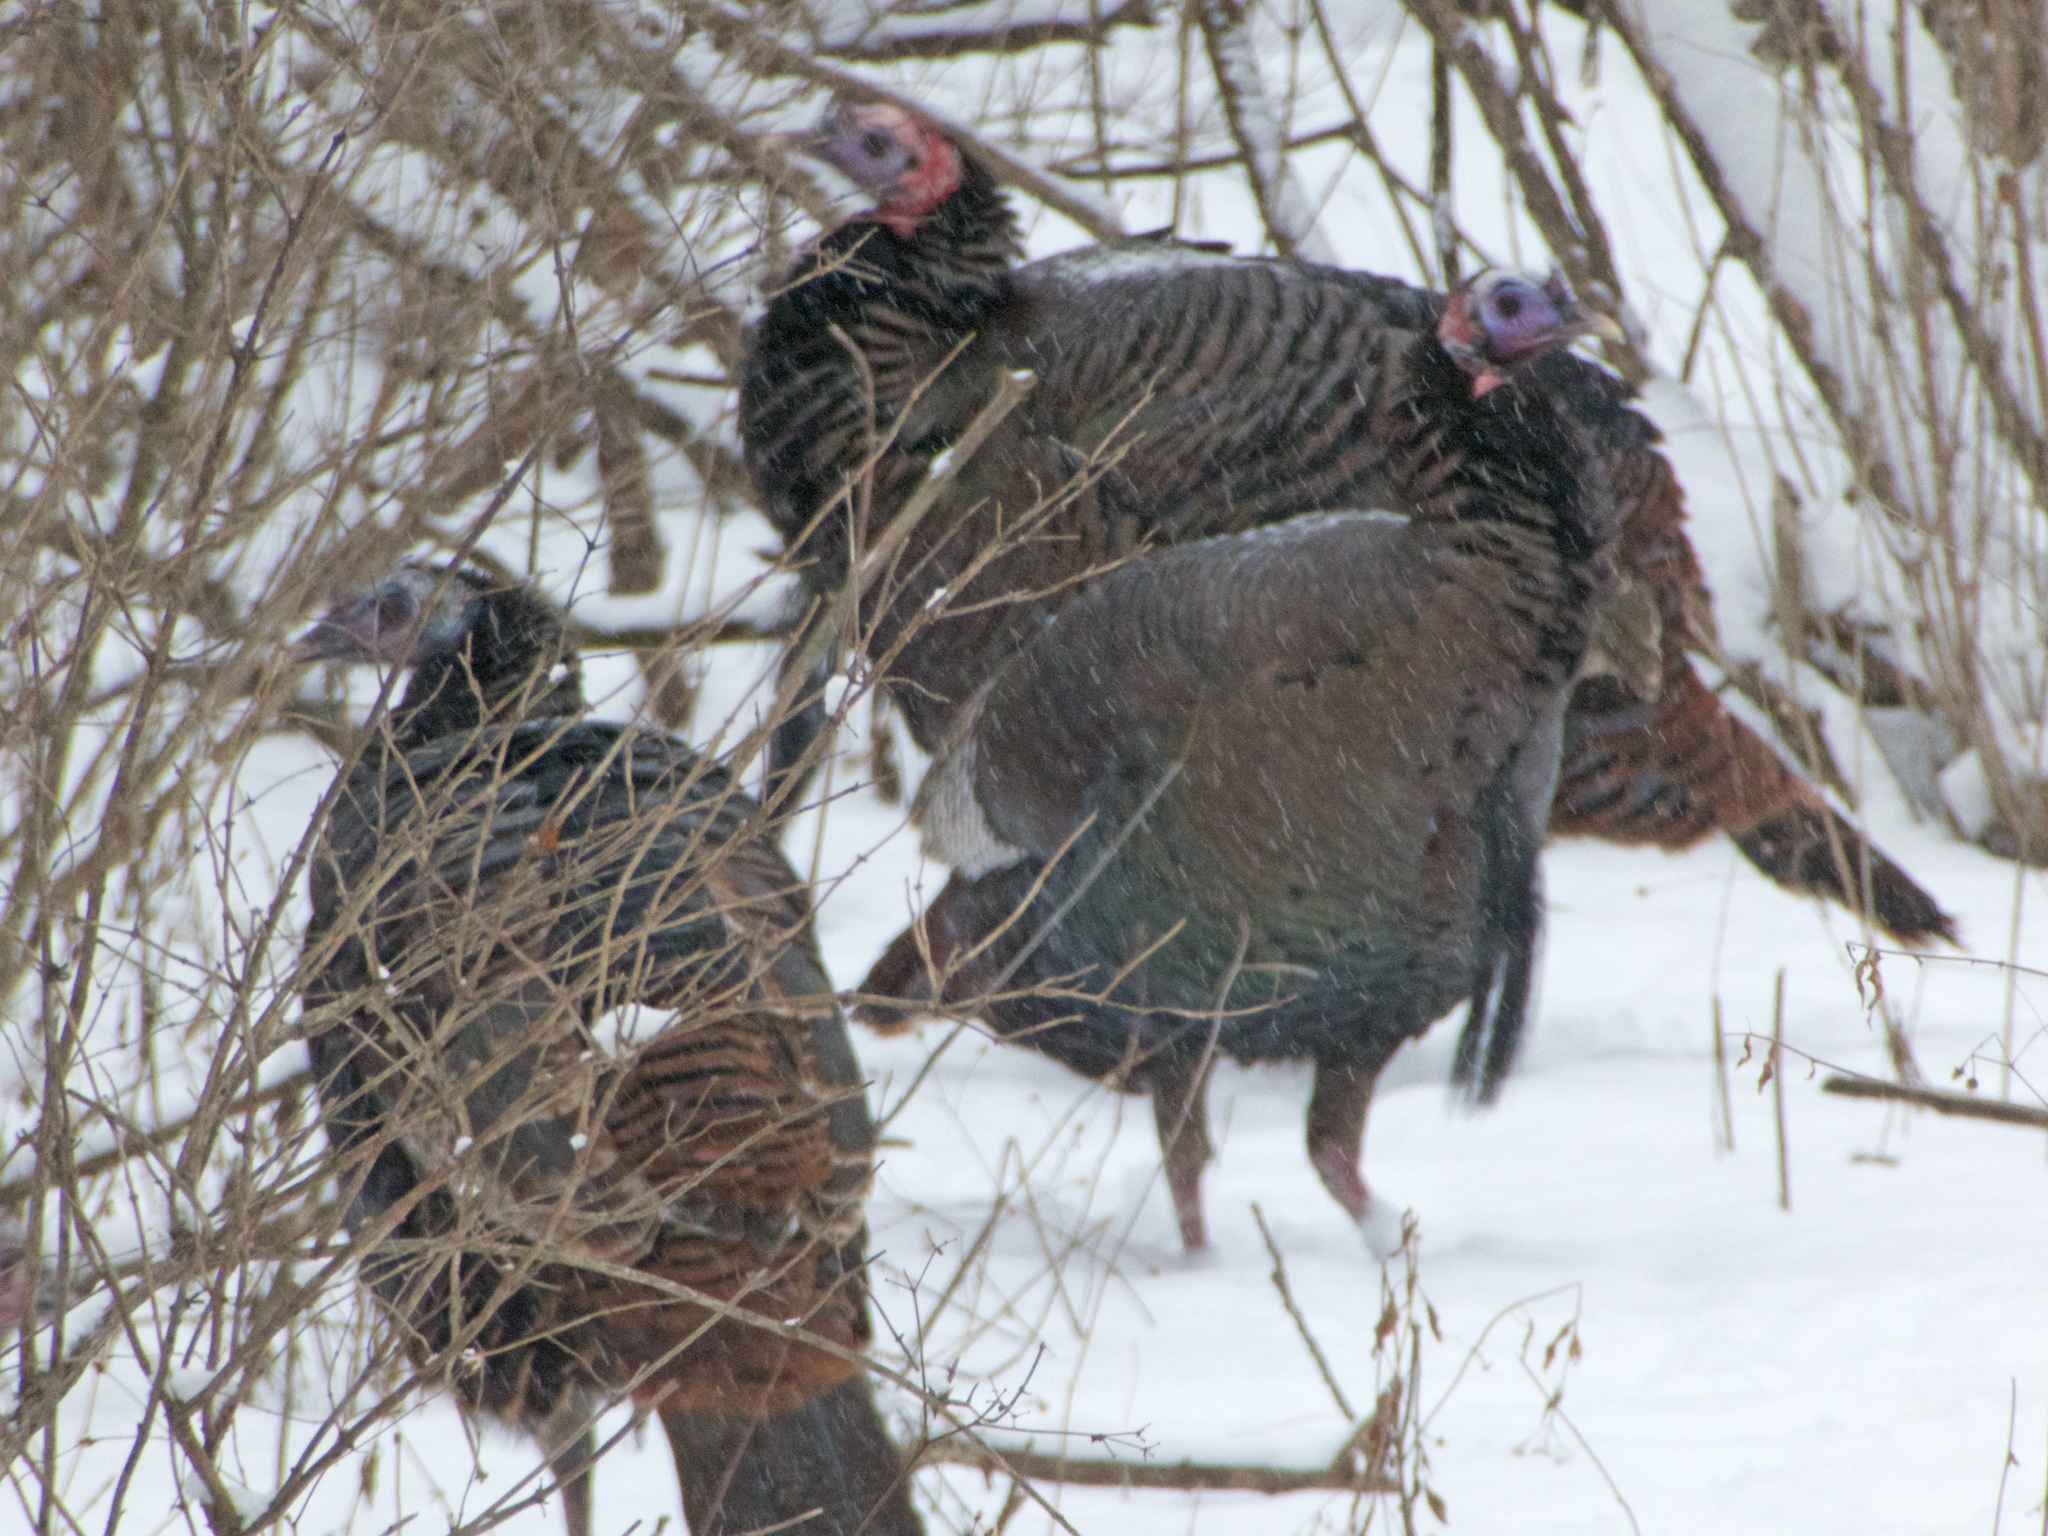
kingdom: Animalia
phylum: Chordata
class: Aves
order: Galliformes
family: Phasianidae
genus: Meleagris
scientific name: Meleagris gallopavo
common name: Wild turkey
